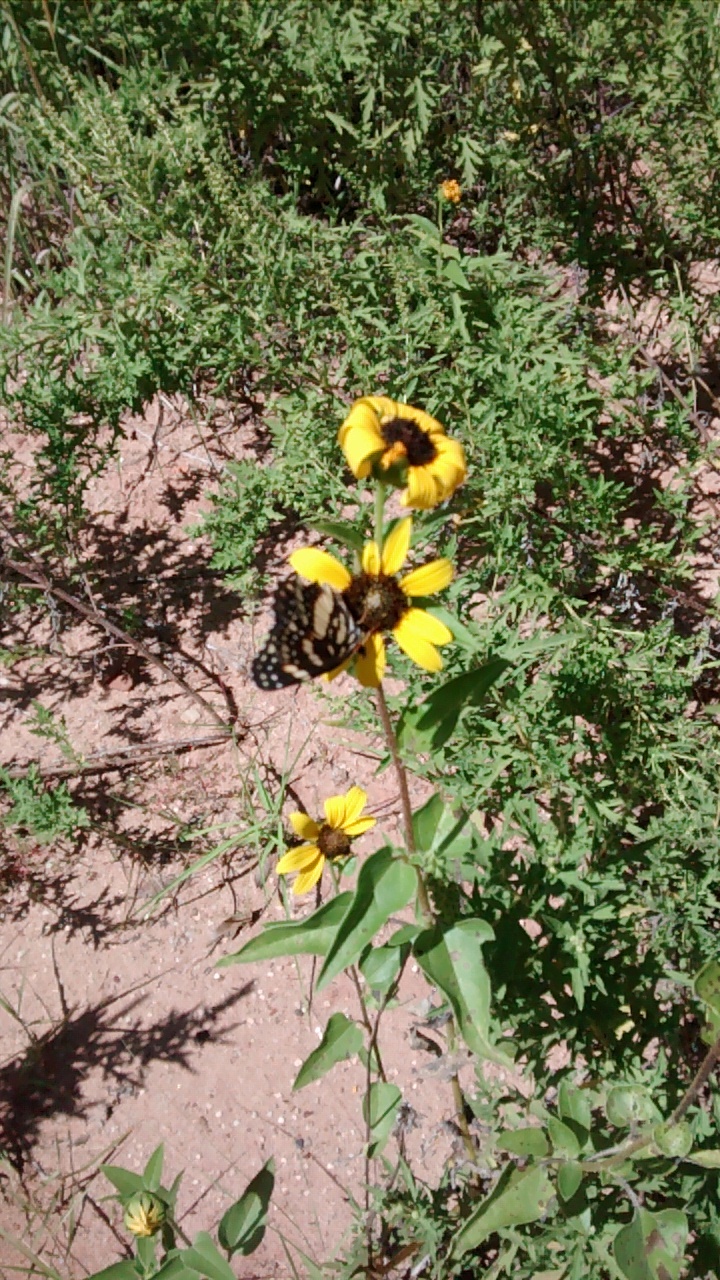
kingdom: Animalia
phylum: Arthropoda
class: Insecta
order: Lepidoptera
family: Nymphalidae
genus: Chlosyne
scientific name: Chlosyne lacinia
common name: Bordered patch
